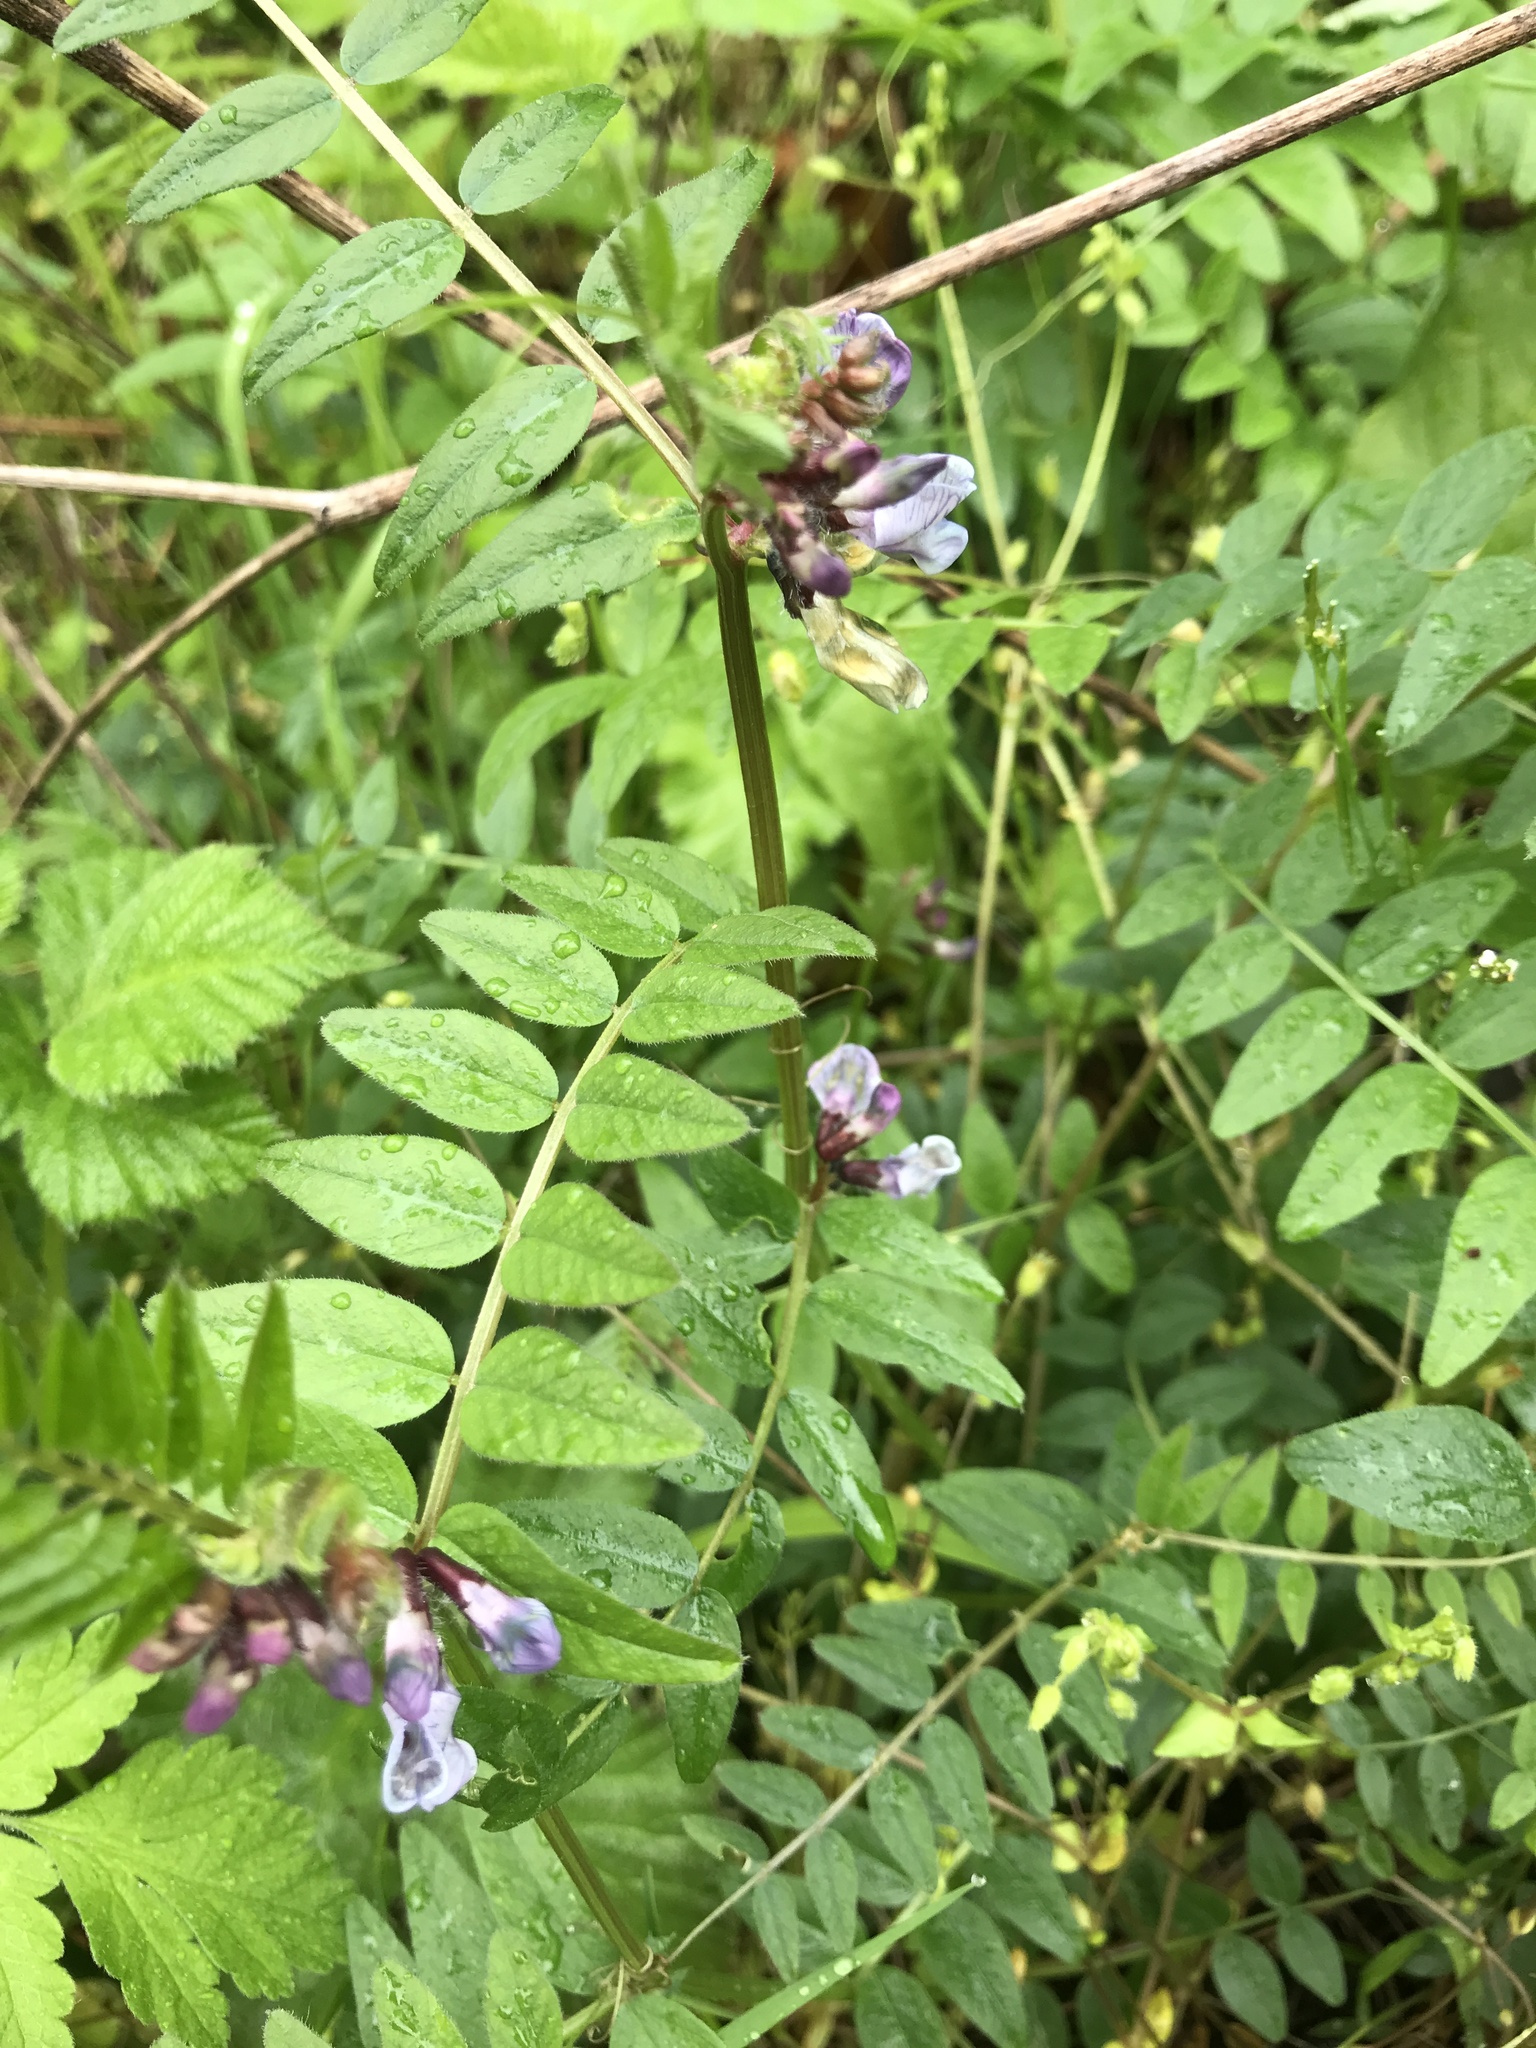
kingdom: Plantae
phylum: Tracheophyta
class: Magnoliopsida
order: Fabales
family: Fabaceae
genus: Vicia
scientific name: Vicia sepium
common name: Bush vetch
